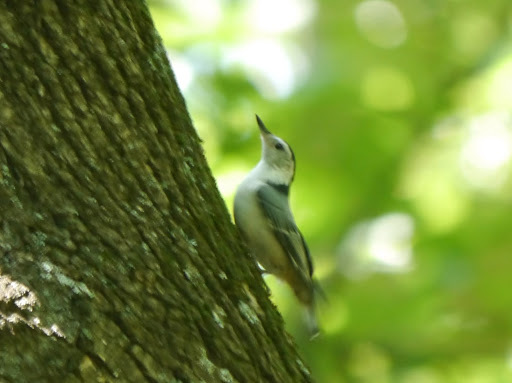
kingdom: Animalia
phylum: Chordata
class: Aves
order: Passeriformes
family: Sittidae
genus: Sitta
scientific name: Sitta carolinensis
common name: White-breasted nuthatch
